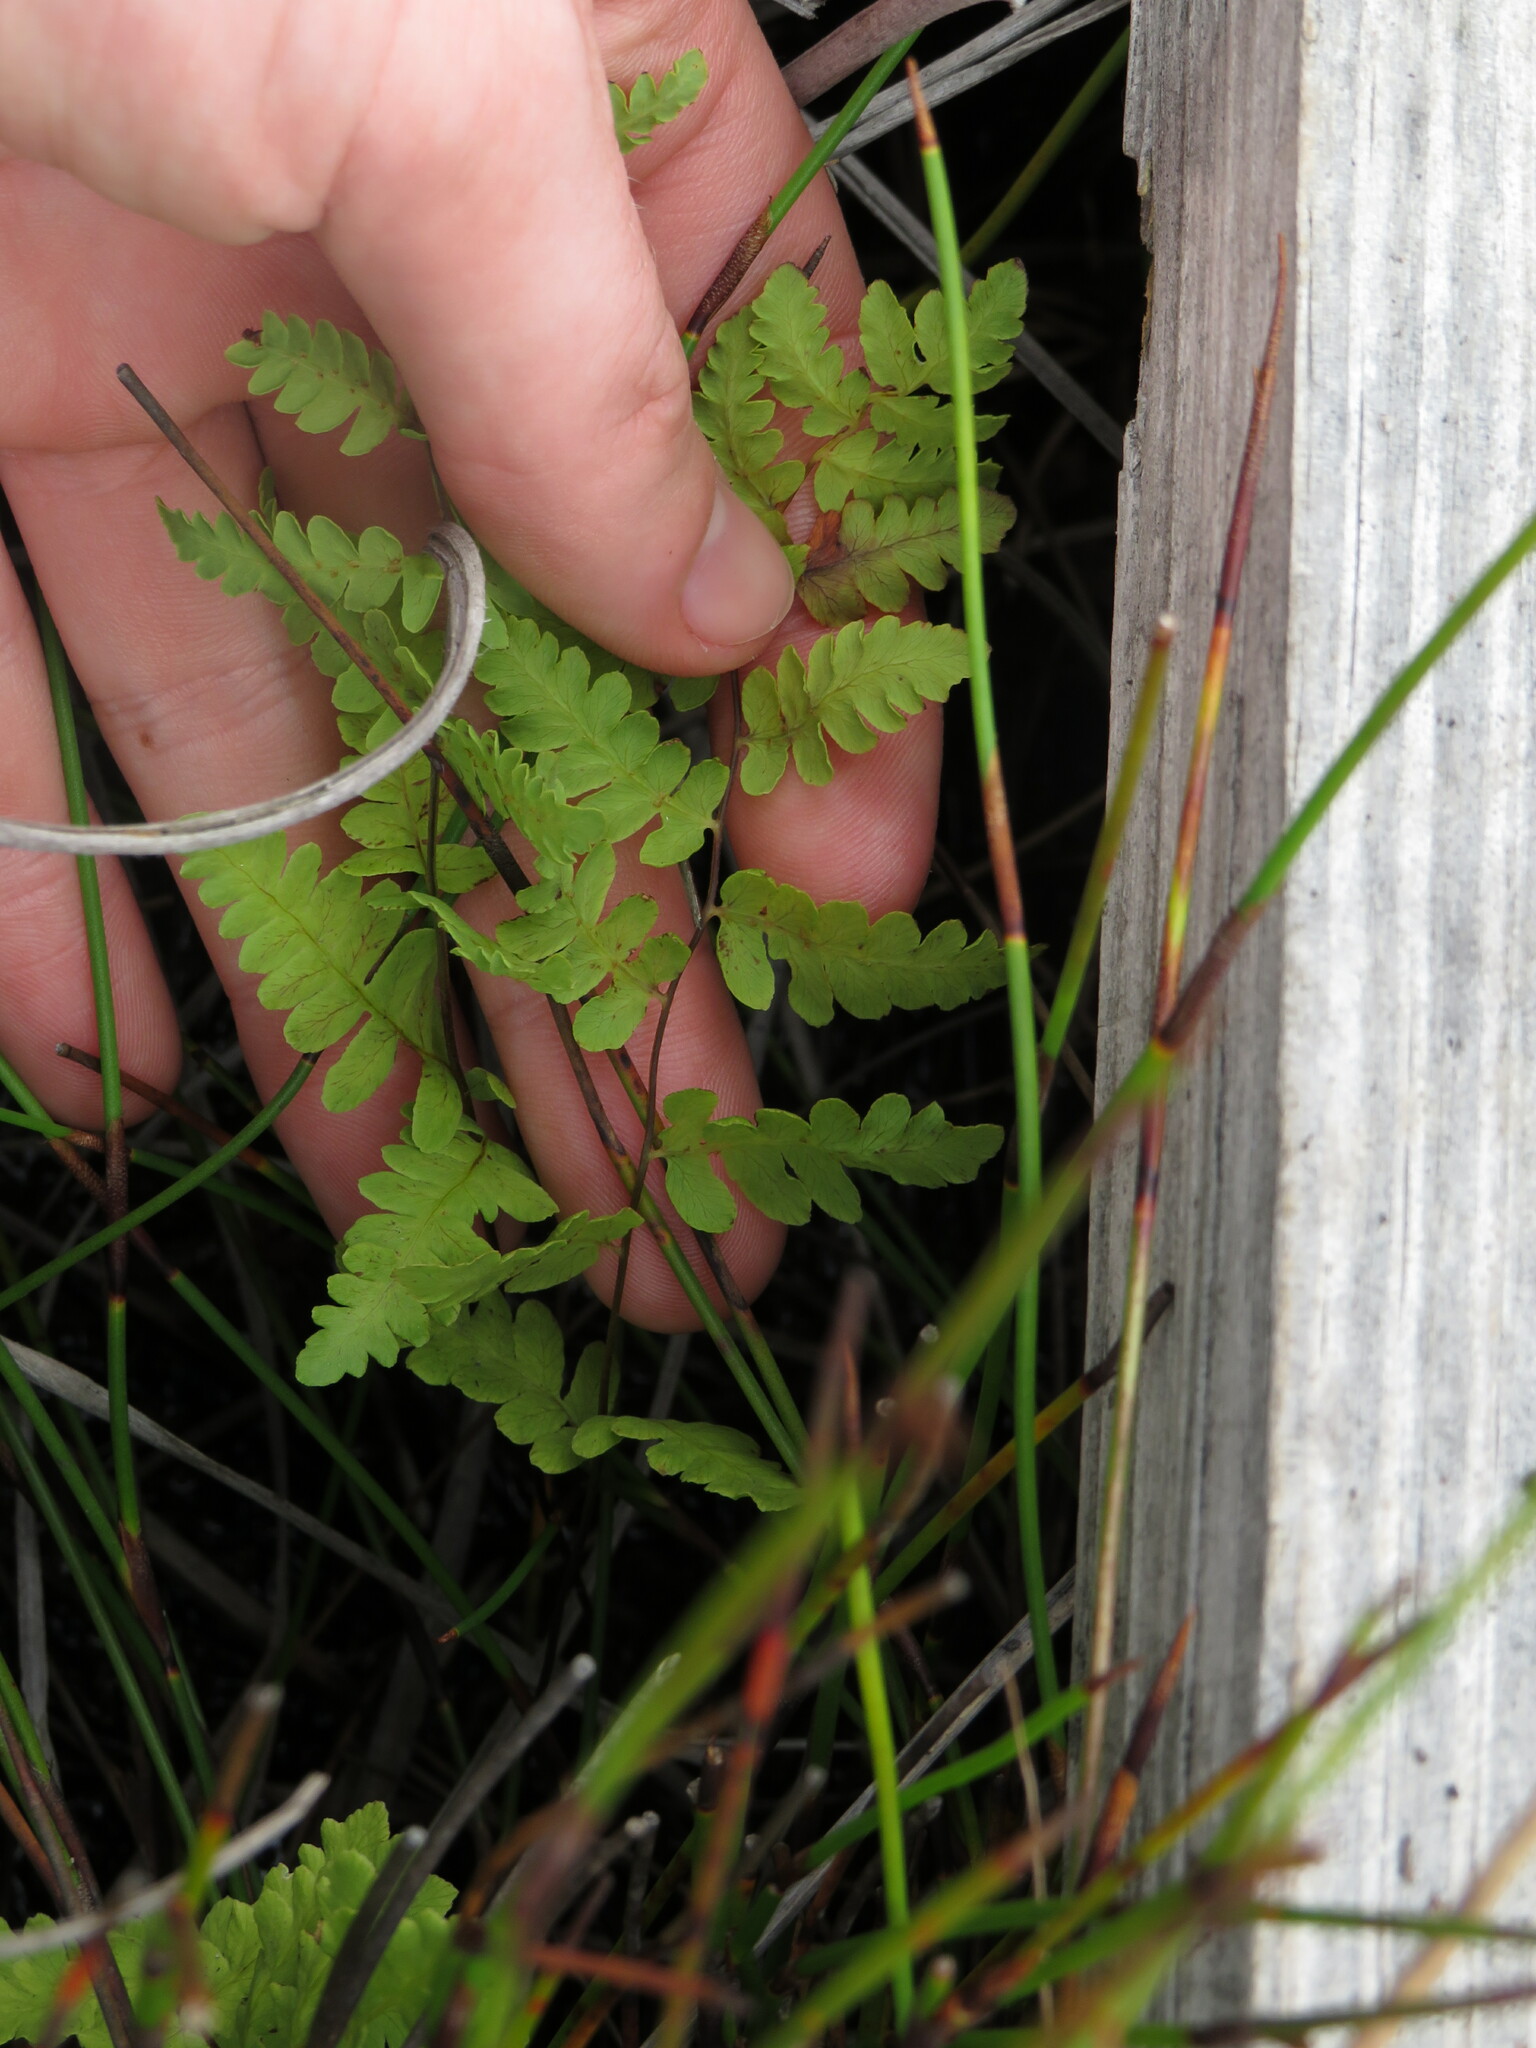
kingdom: Plantae
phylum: Tracheophyta
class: Polypodiopsida
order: Polypodiales
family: Thelypteridaceae
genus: Thelypteris
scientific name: Thelypteris confluens
